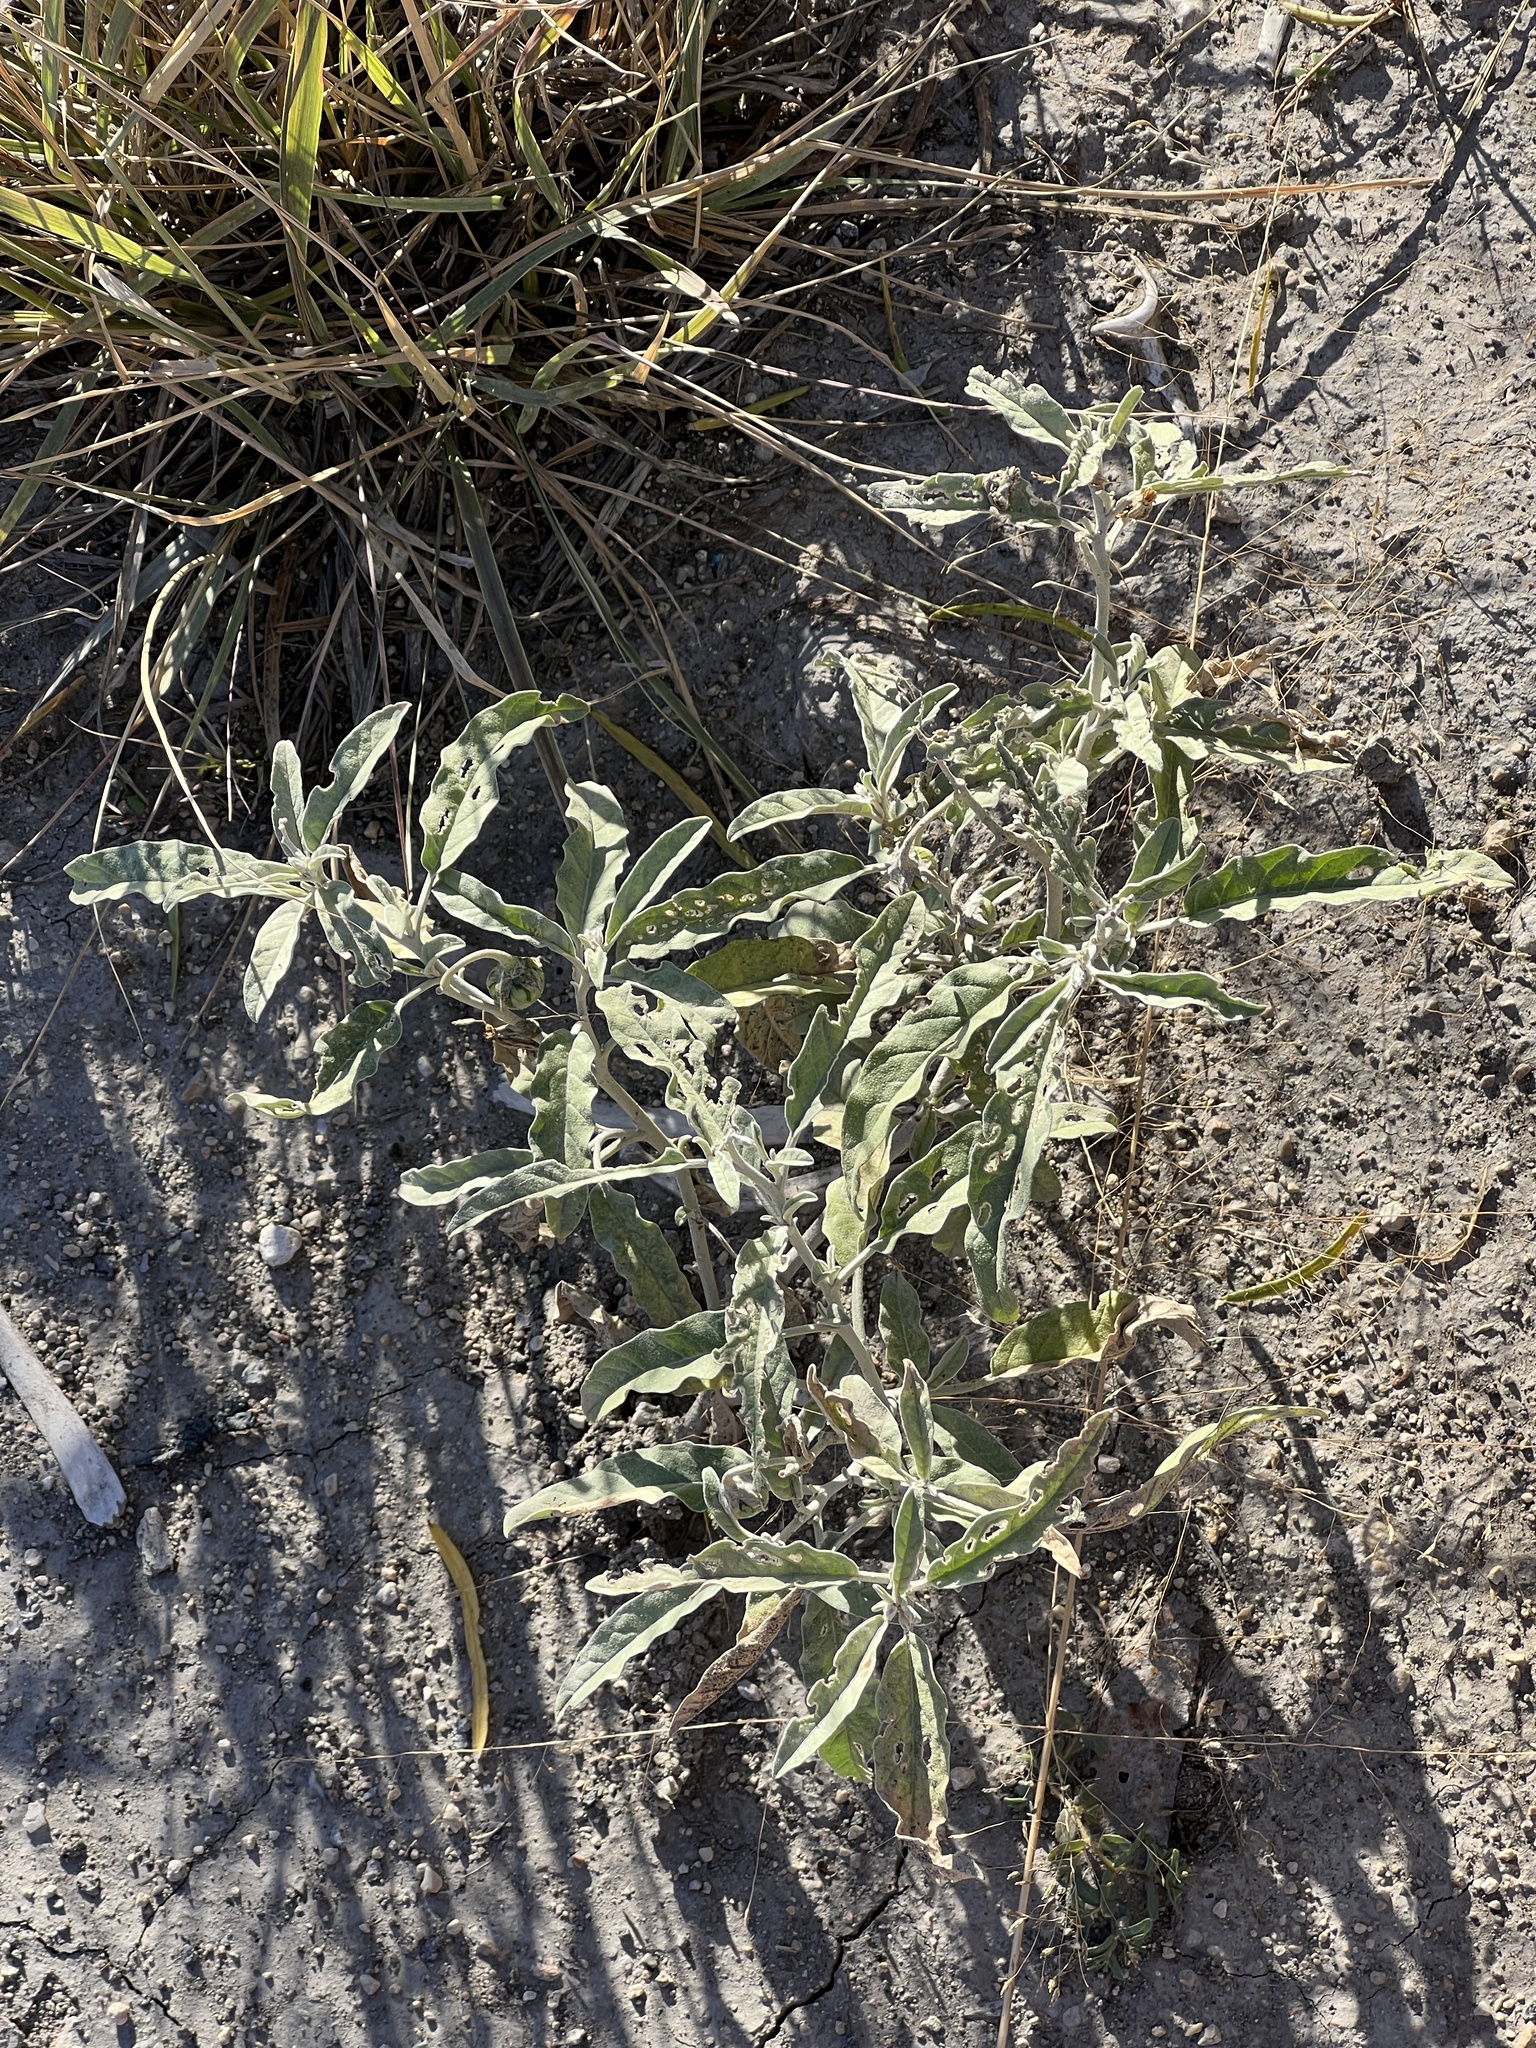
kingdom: Plantae
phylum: Tracheophyta
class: Magnoliopsida
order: Solanales
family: Solanaceae
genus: Solanum
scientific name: Solanum elaeagnifolium
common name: Silverleaf nightshade
